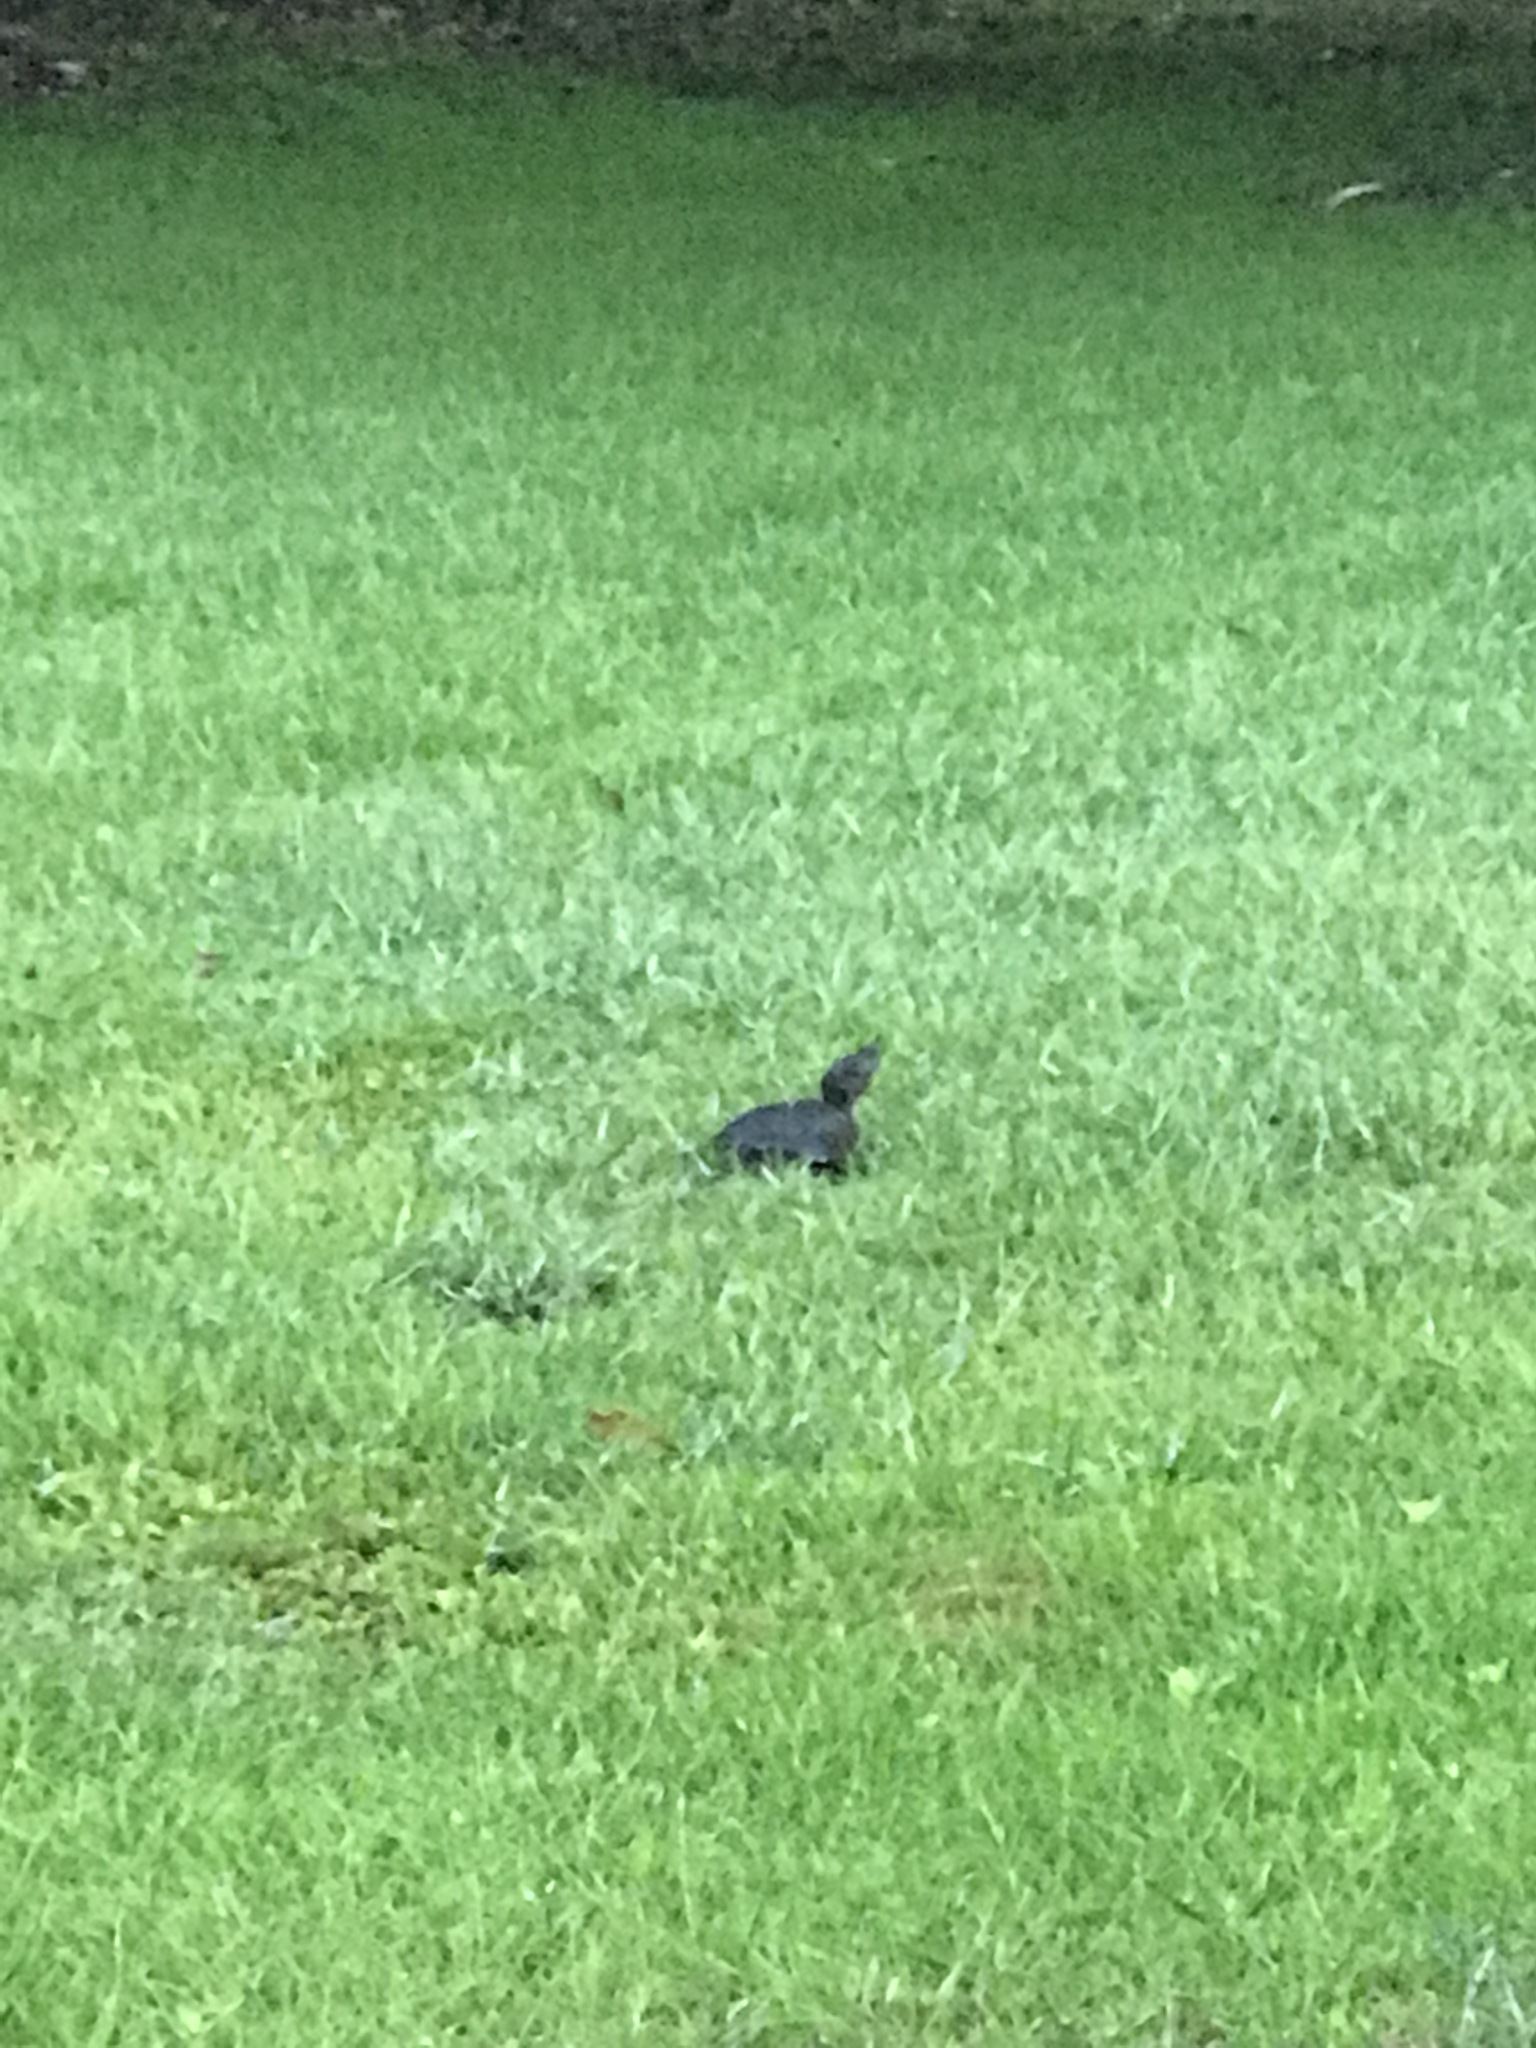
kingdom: Animalia
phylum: Chordata
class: Testudines
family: Chelydridae
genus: Chelydra
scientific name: Chelydra serpentina
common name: Common snapping turtle
